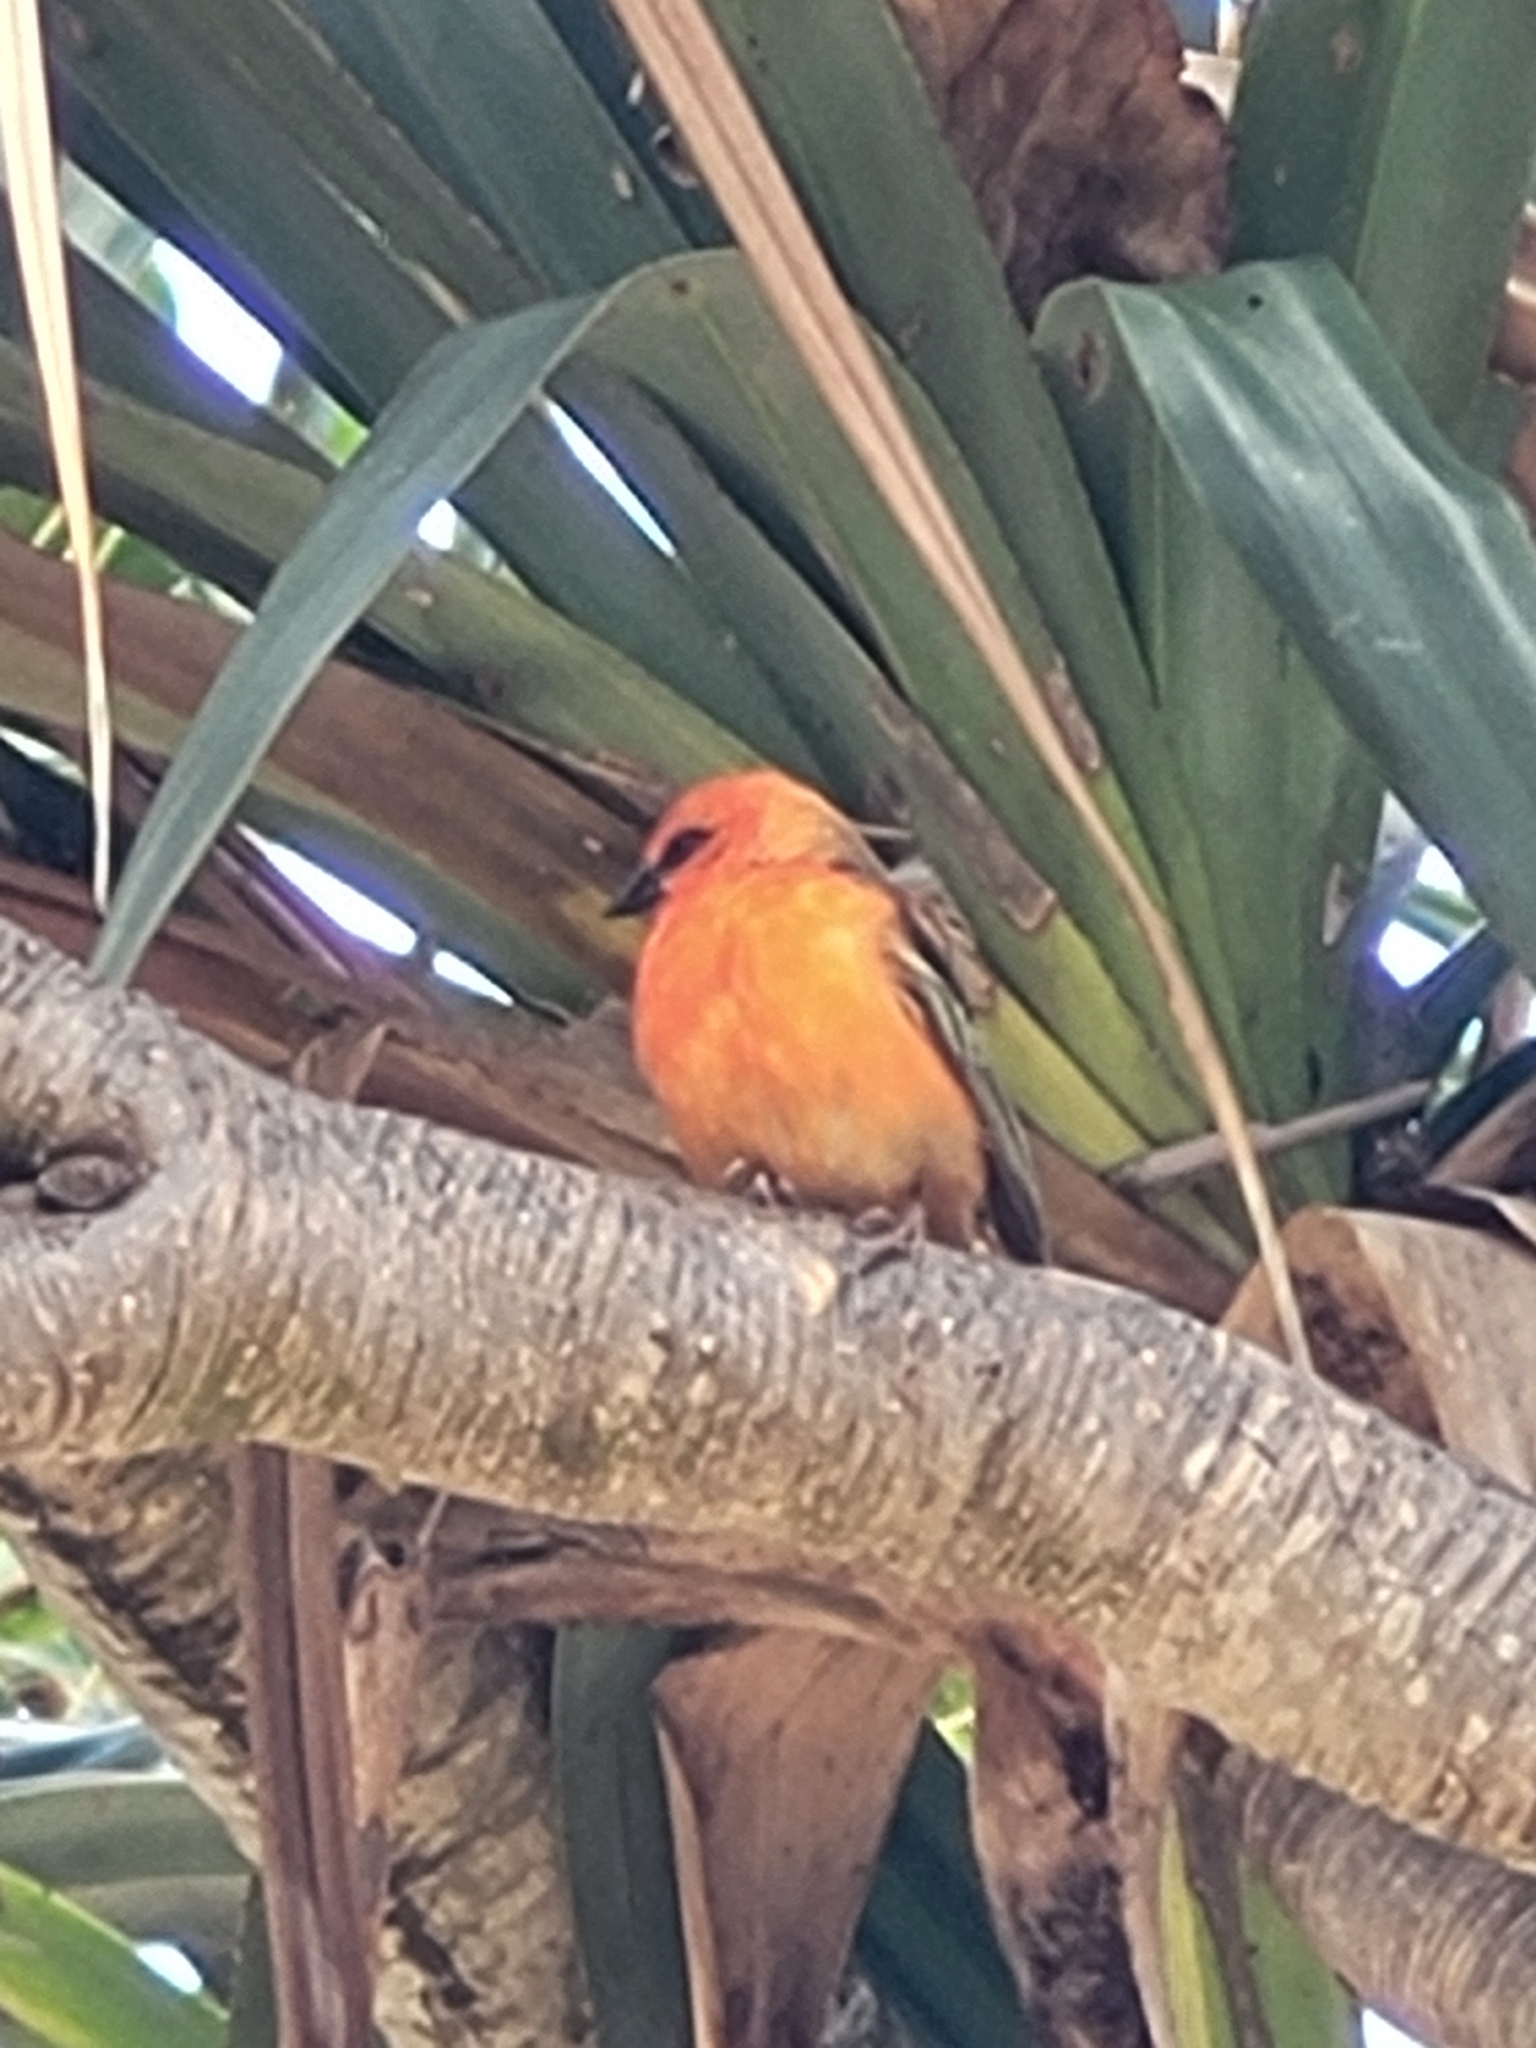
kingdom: Animalia
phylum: Chordata
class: Aves
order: Passeriformes
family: Ploceidae
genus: Foudia
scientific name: Foudia madagascariensis
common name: Red fody
